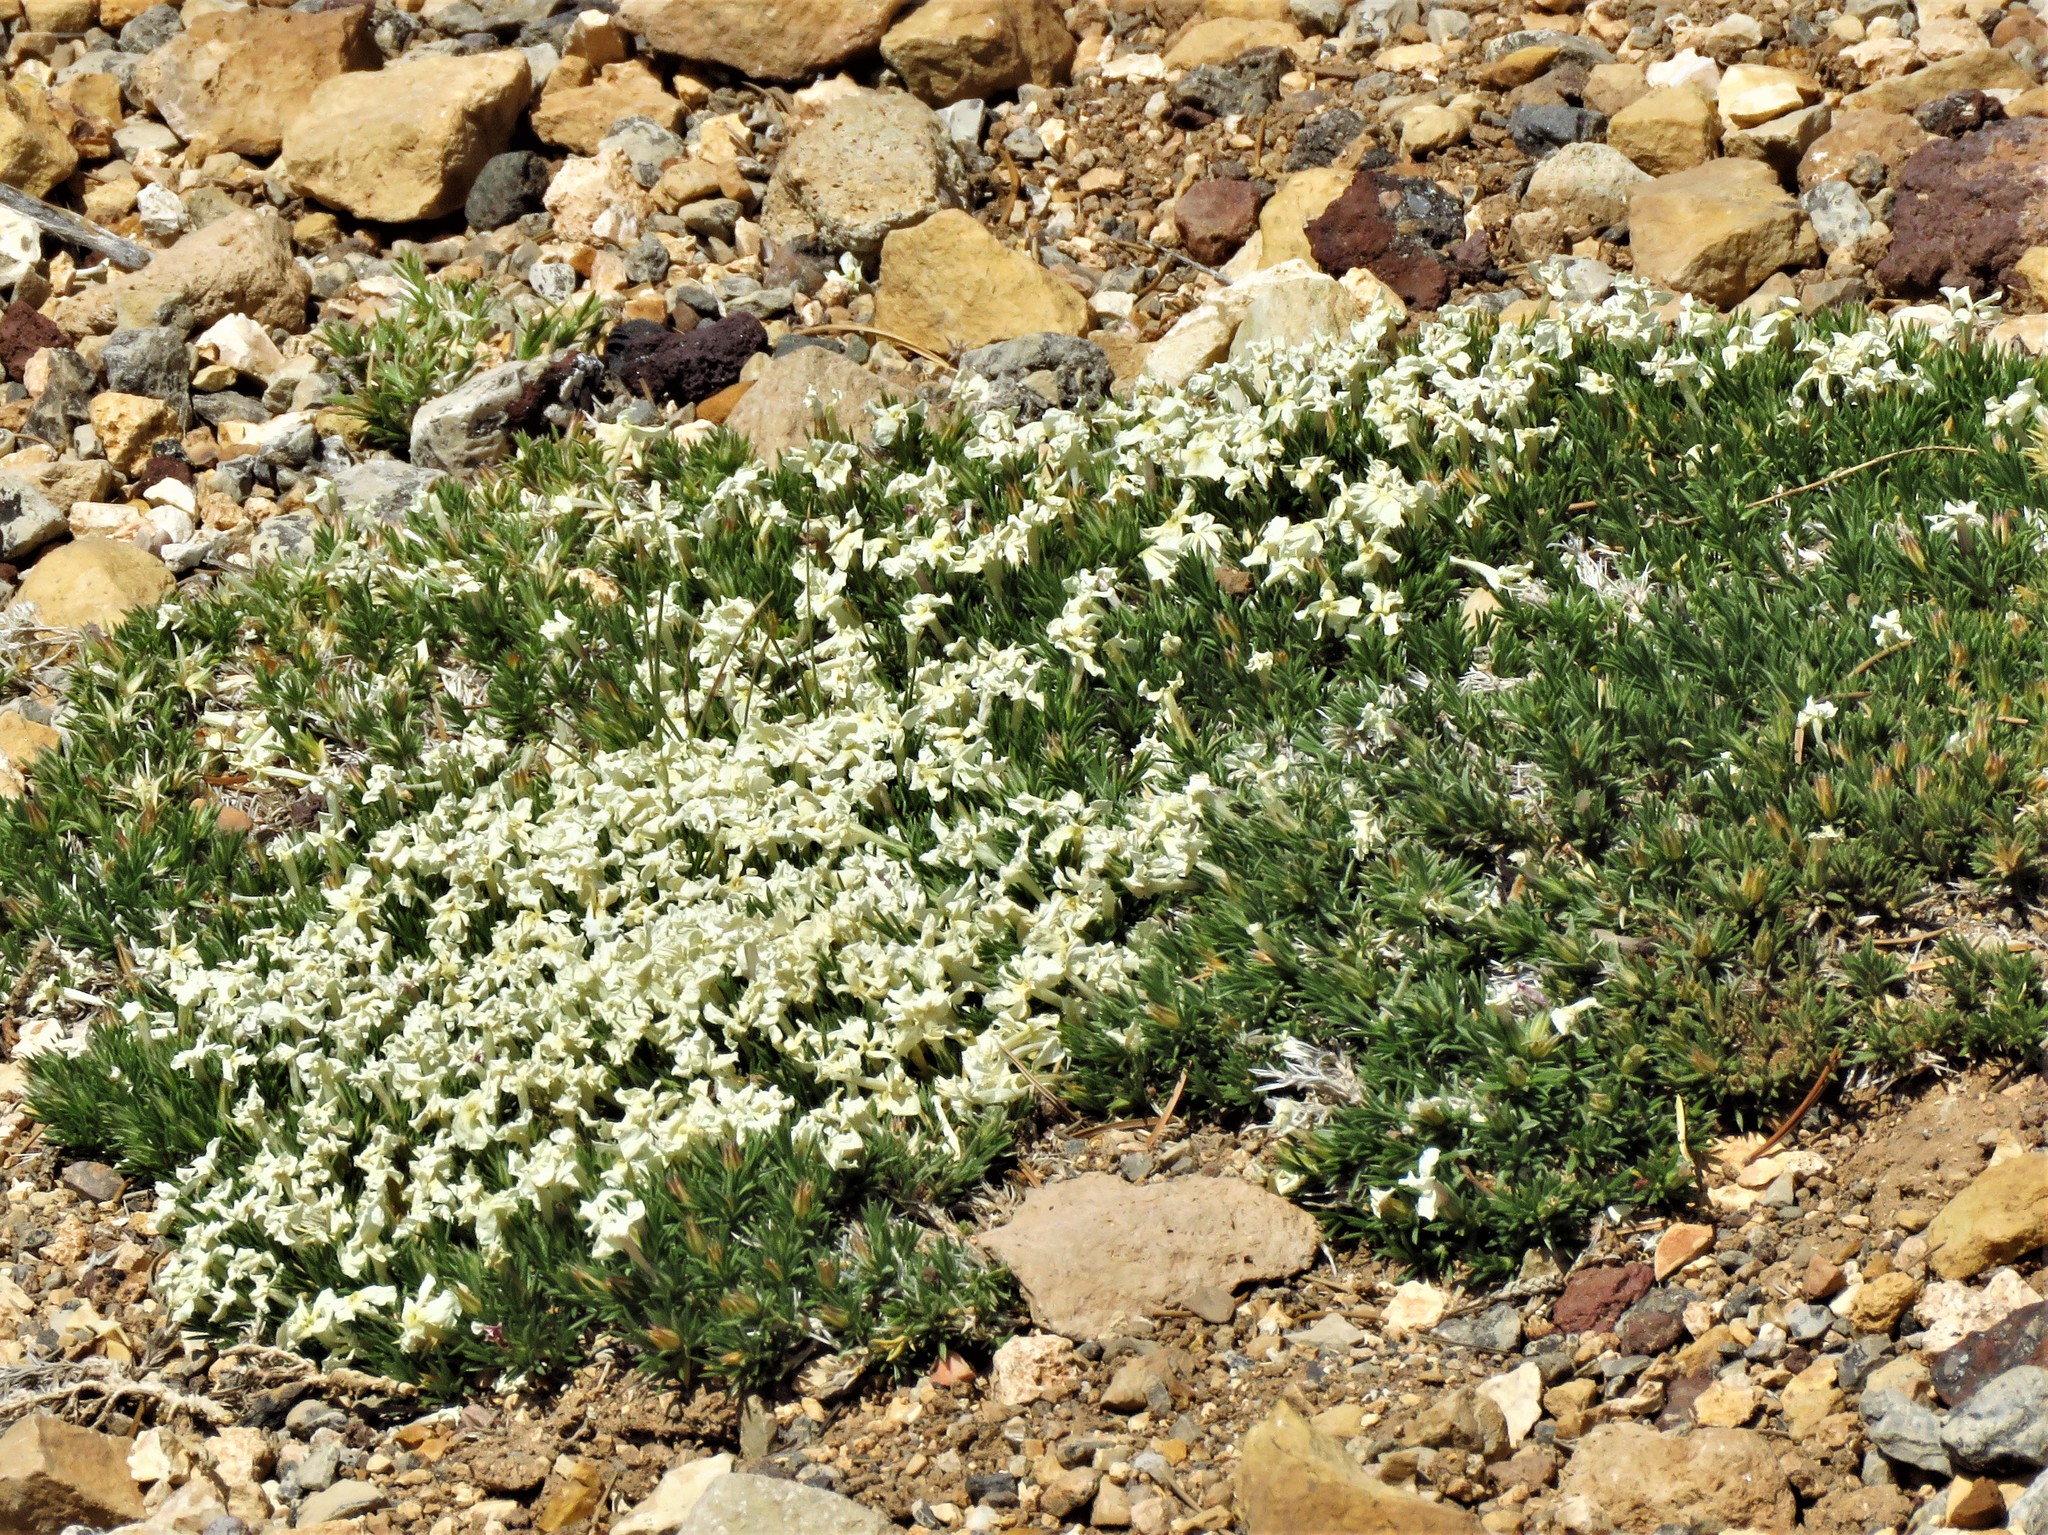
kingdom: Plantae
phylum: Tracheophyta
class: Magnoliopsida
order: Ericales
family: Polemoniaceae
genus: Phlox
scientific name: Phlox austromontana
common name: Desert phlox
